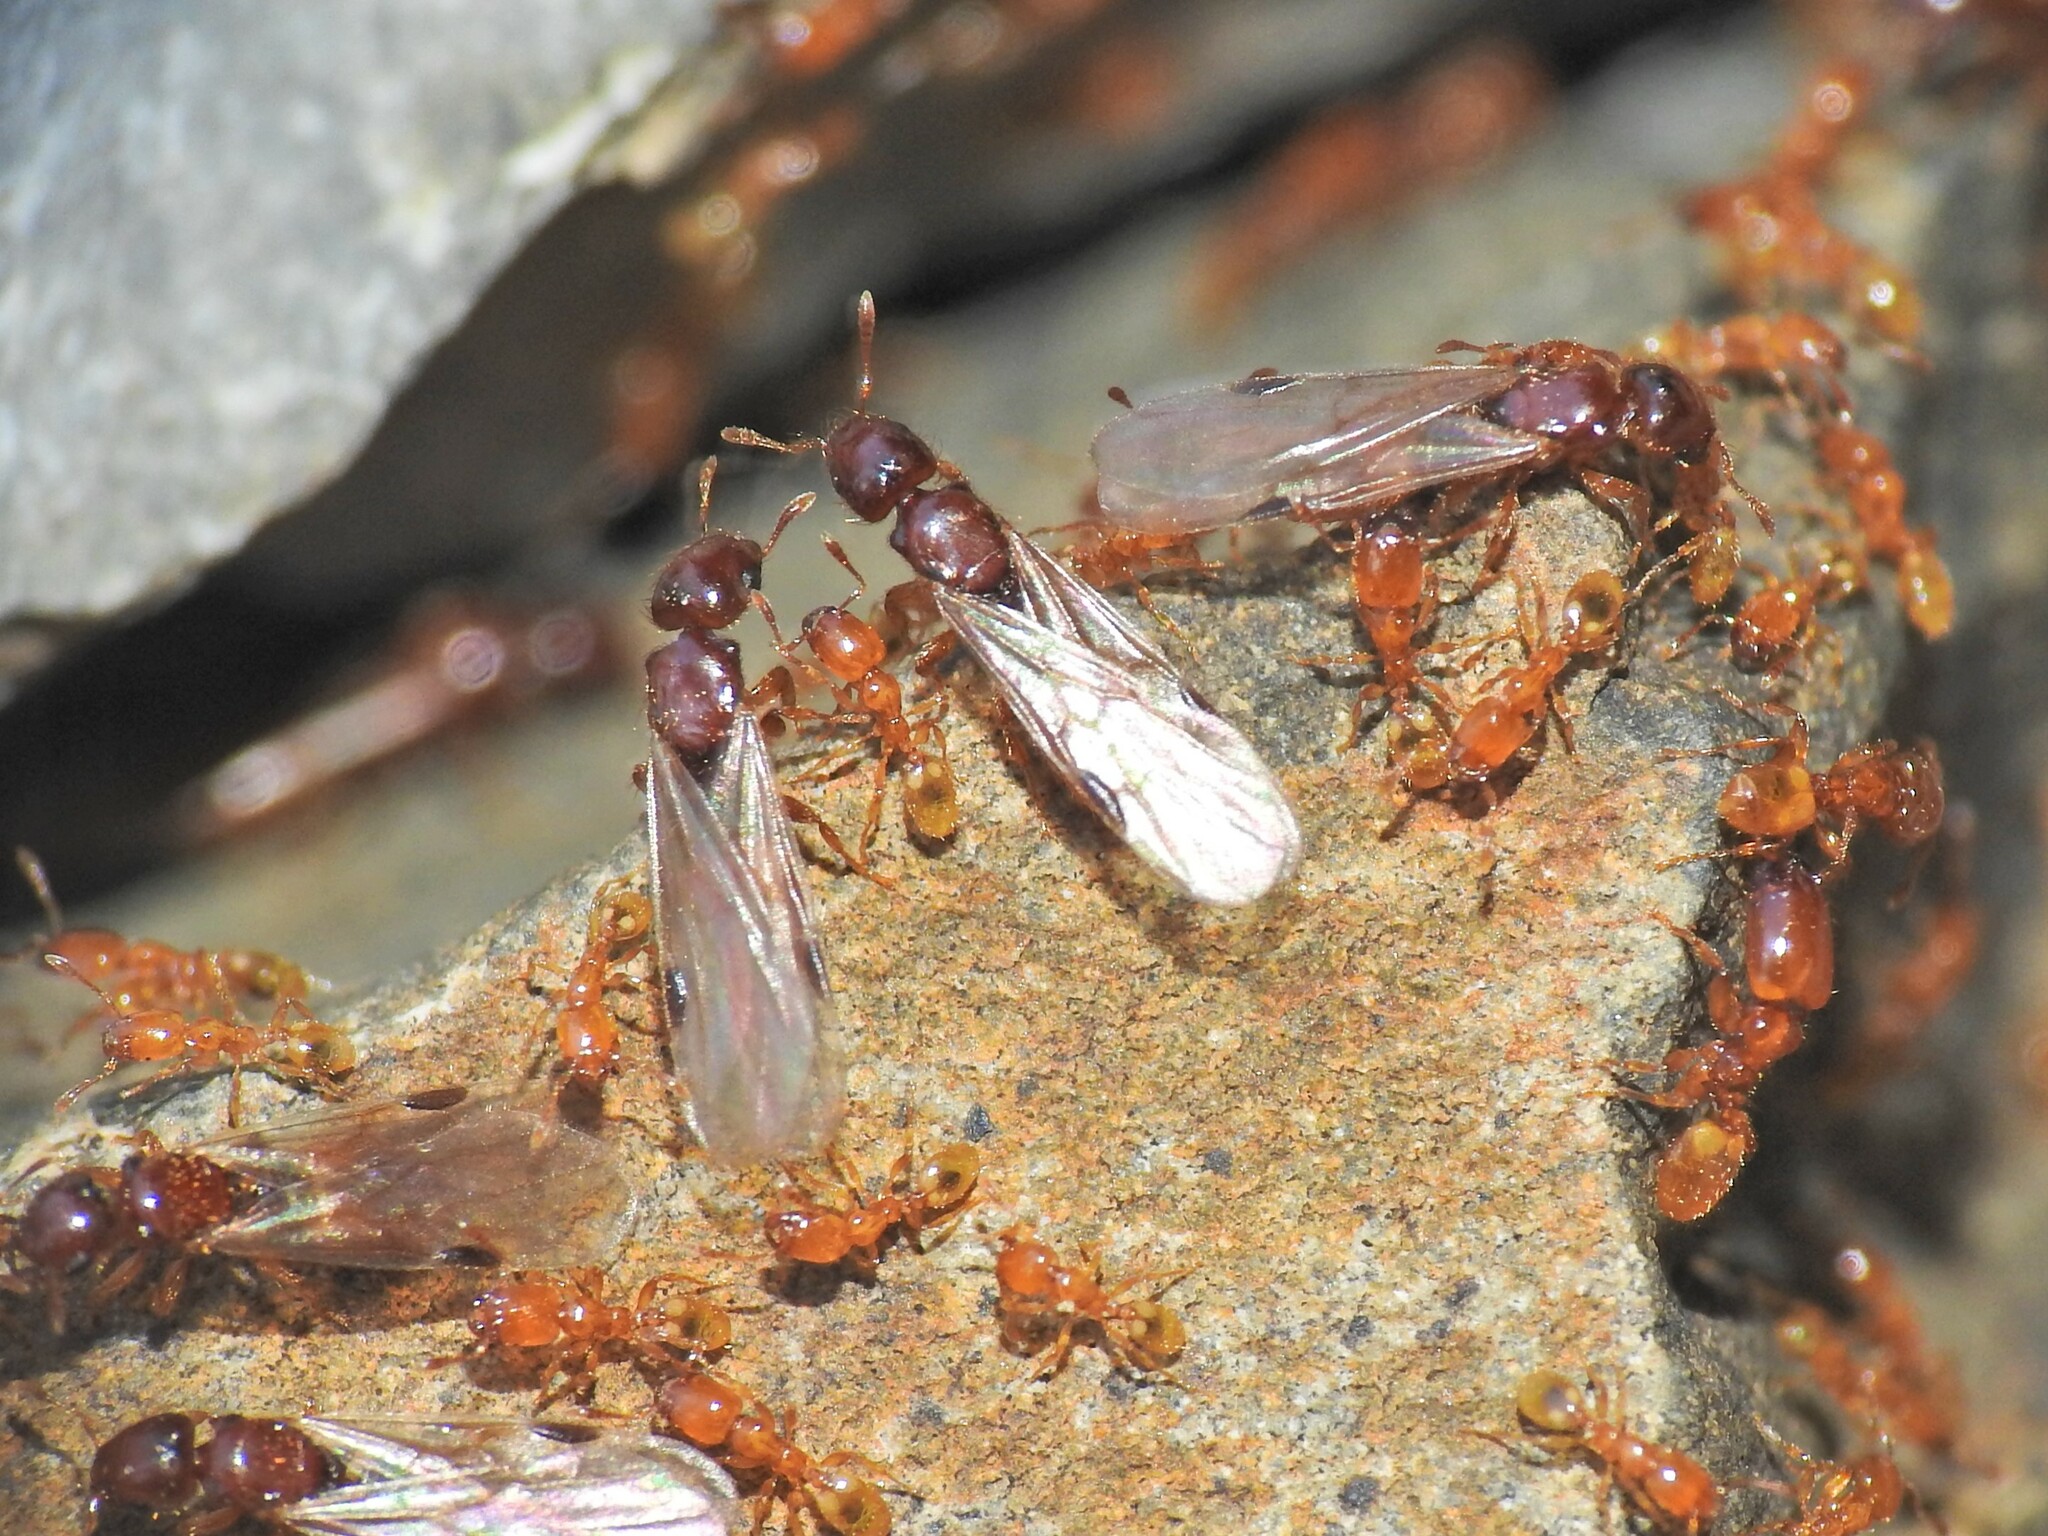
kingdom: Animalia
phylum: Arthropoda
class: Insecta
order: Hymenoptera
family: Formicidae
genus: Pheidole
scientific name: Pheidole
